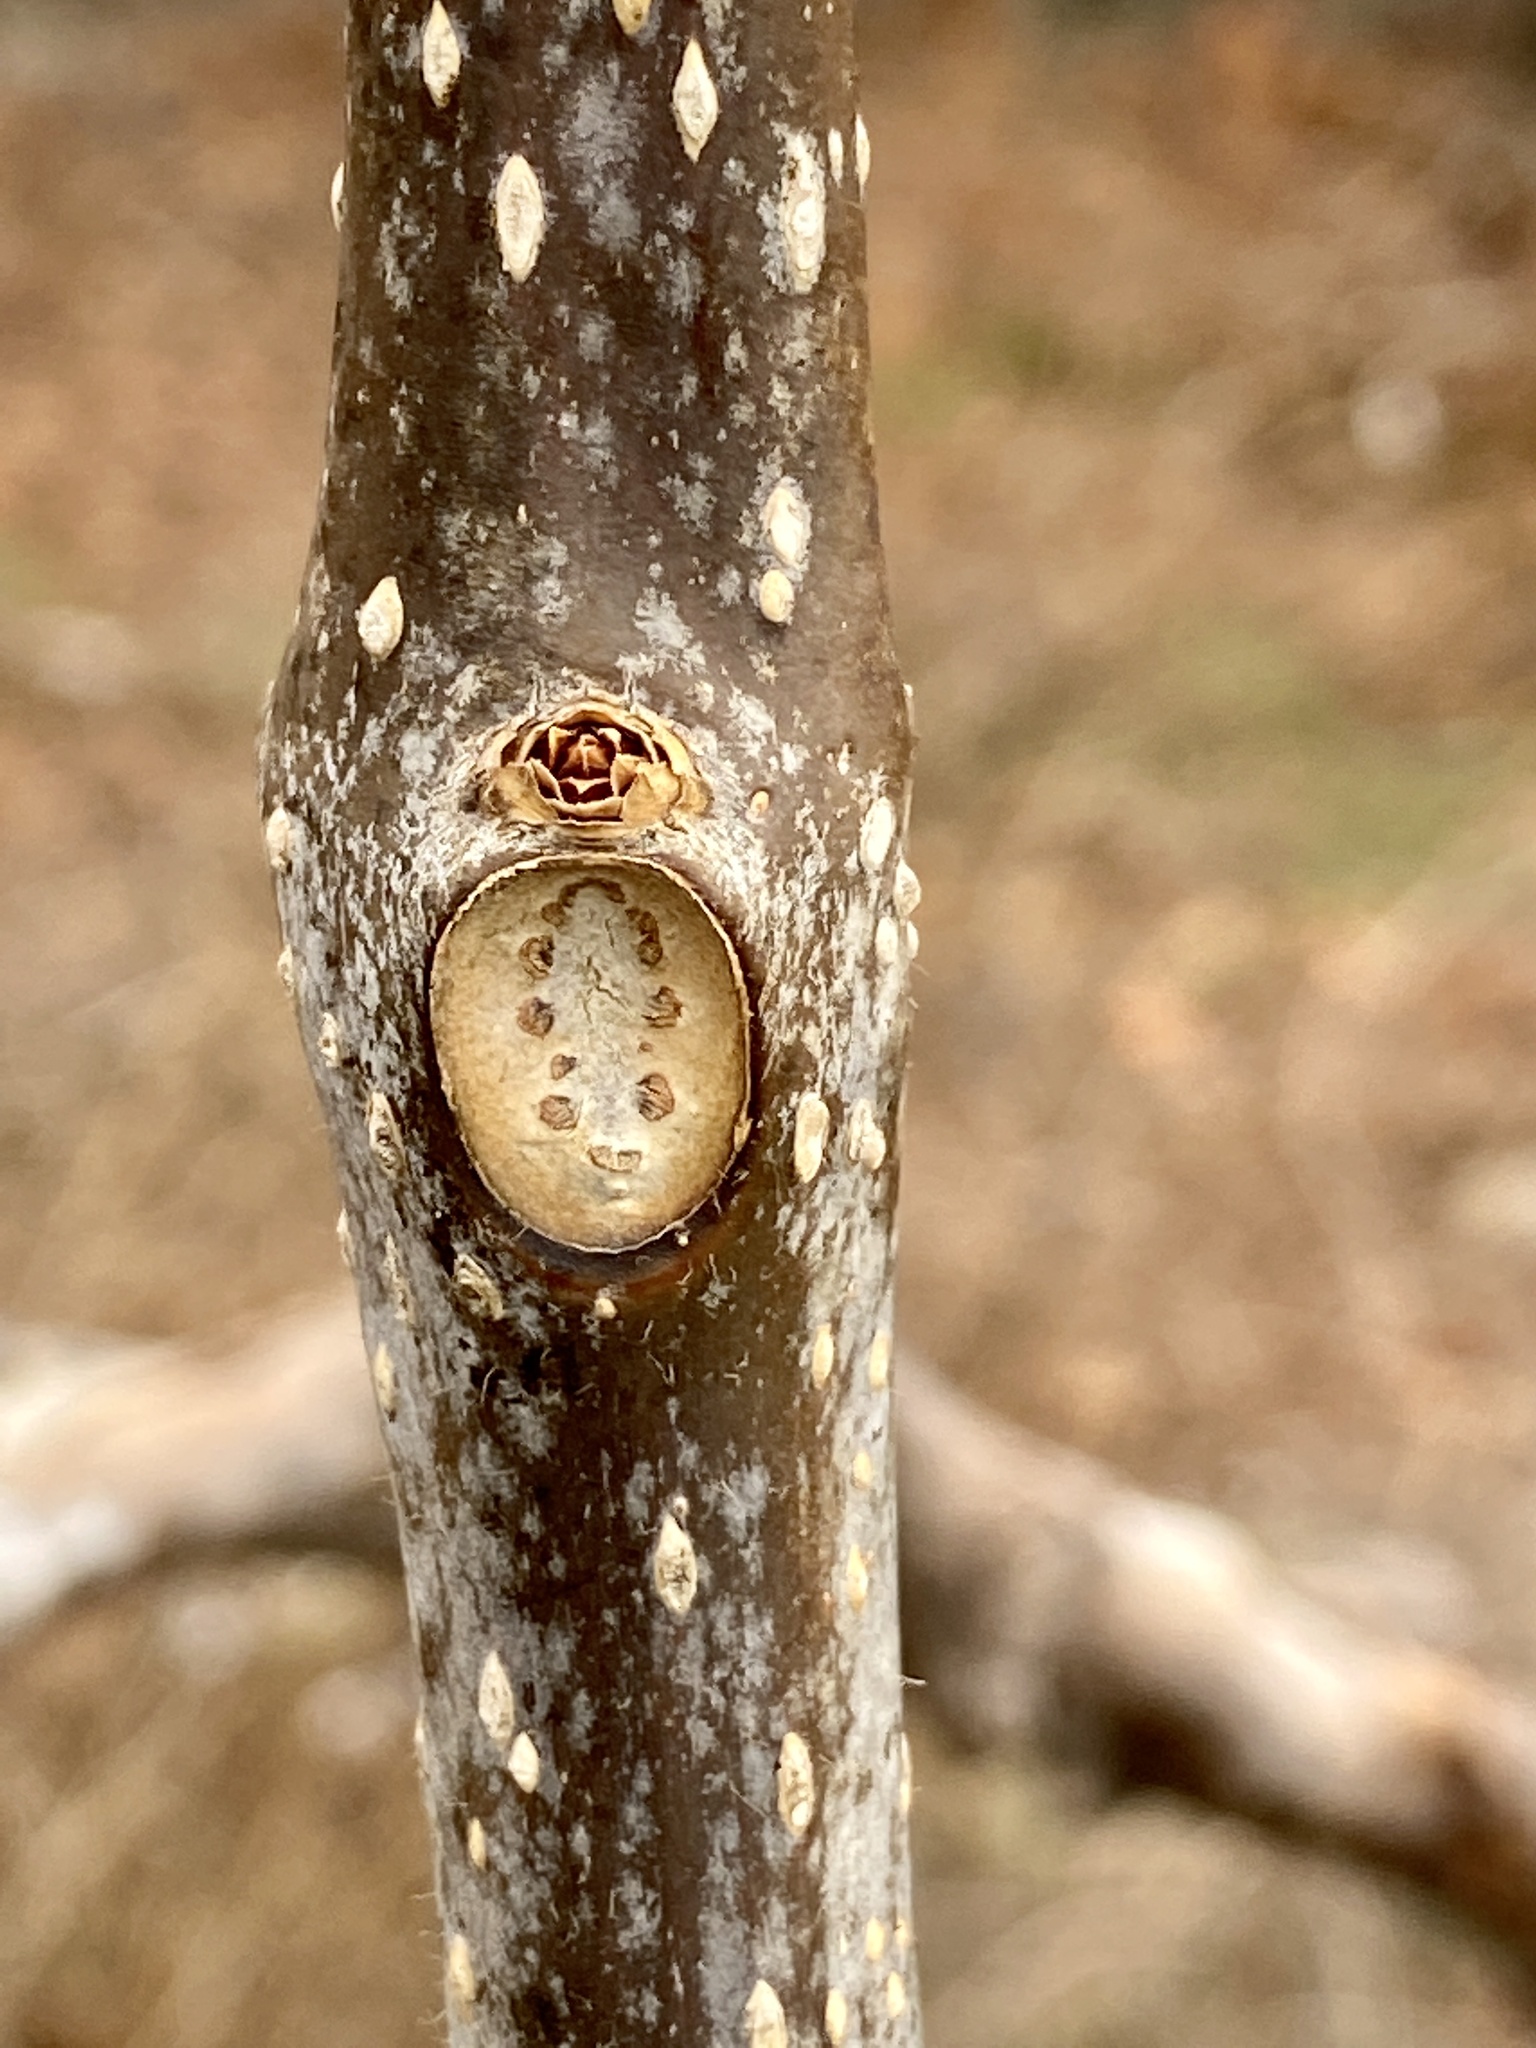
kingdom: Plantae
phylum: Tracheophyta
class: Magnoliopsida
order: Lamiales
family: Bignoniaceae
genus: Catalpa
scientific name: Catalpa
